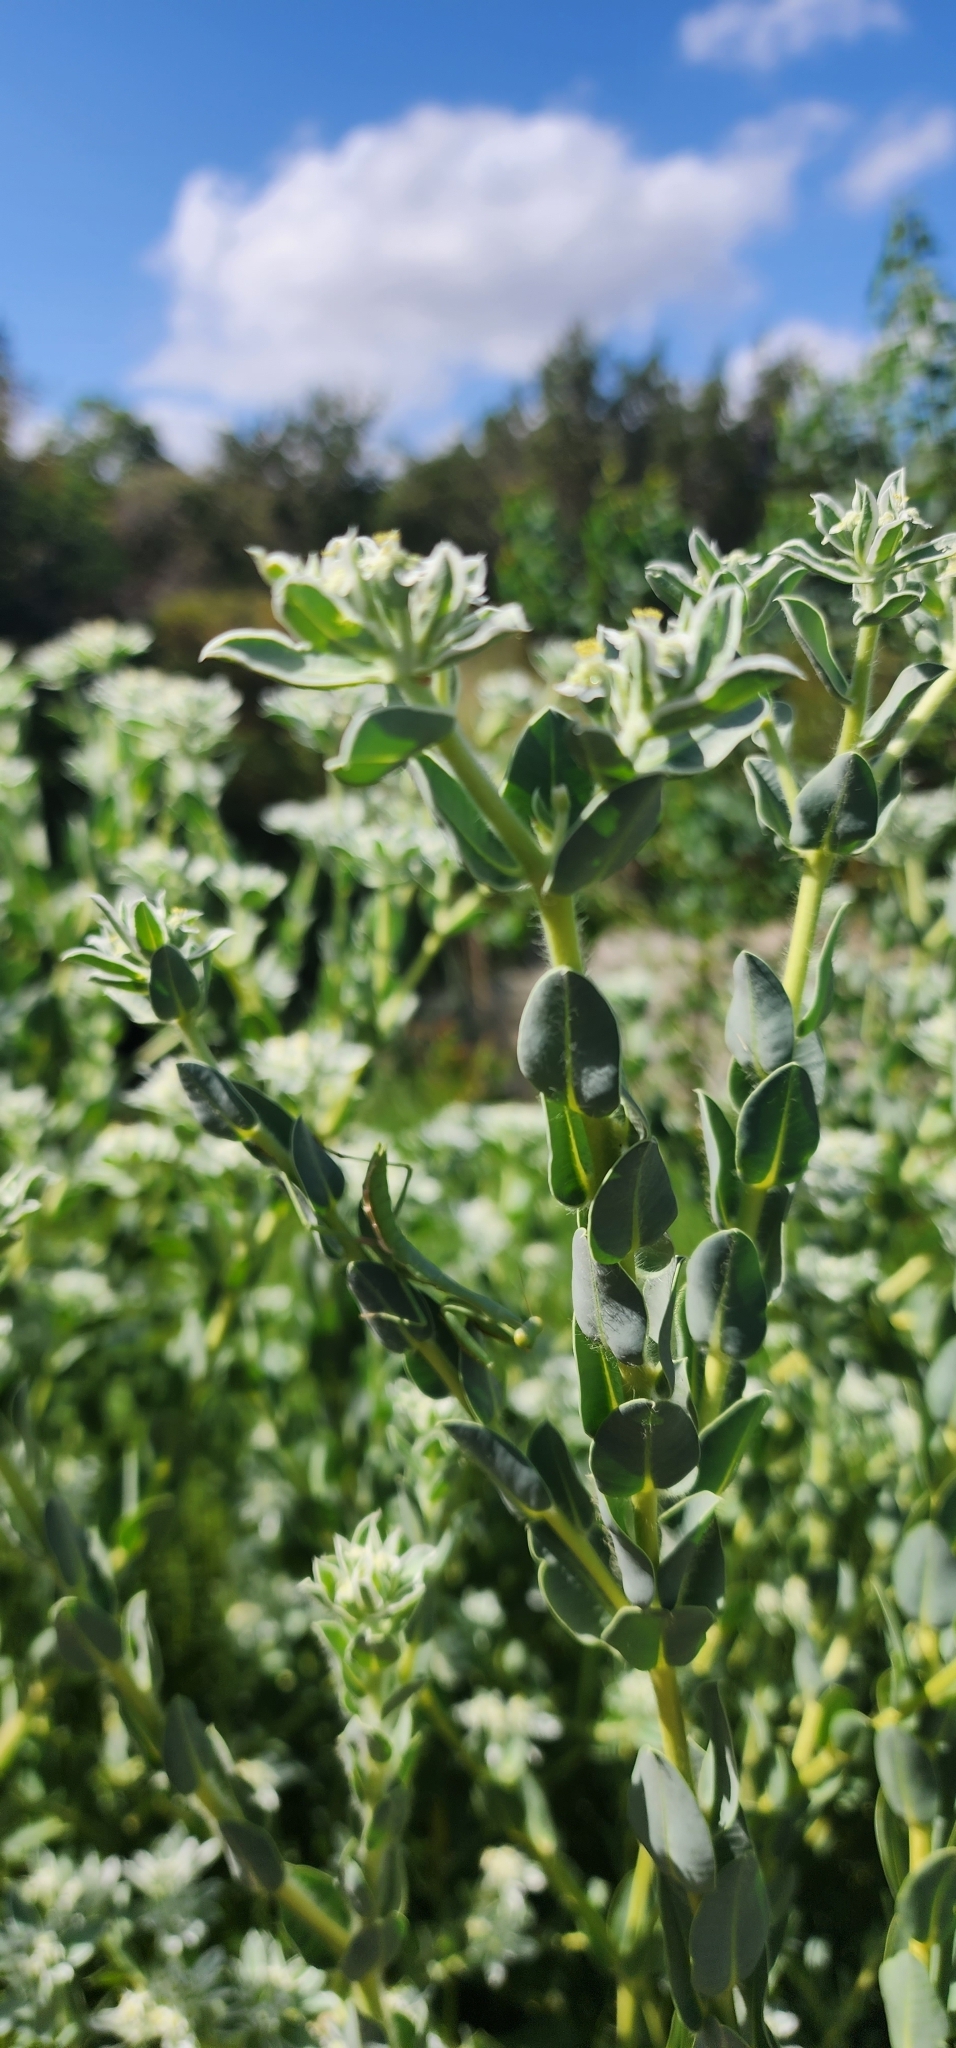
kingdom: Plantae
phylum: Tracheophyta
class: Magnoliopsida
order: Malpighiales
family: Euphorbiaceae
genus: Euphorbia
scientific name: Euphorbia marginata
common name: Ghostweed
